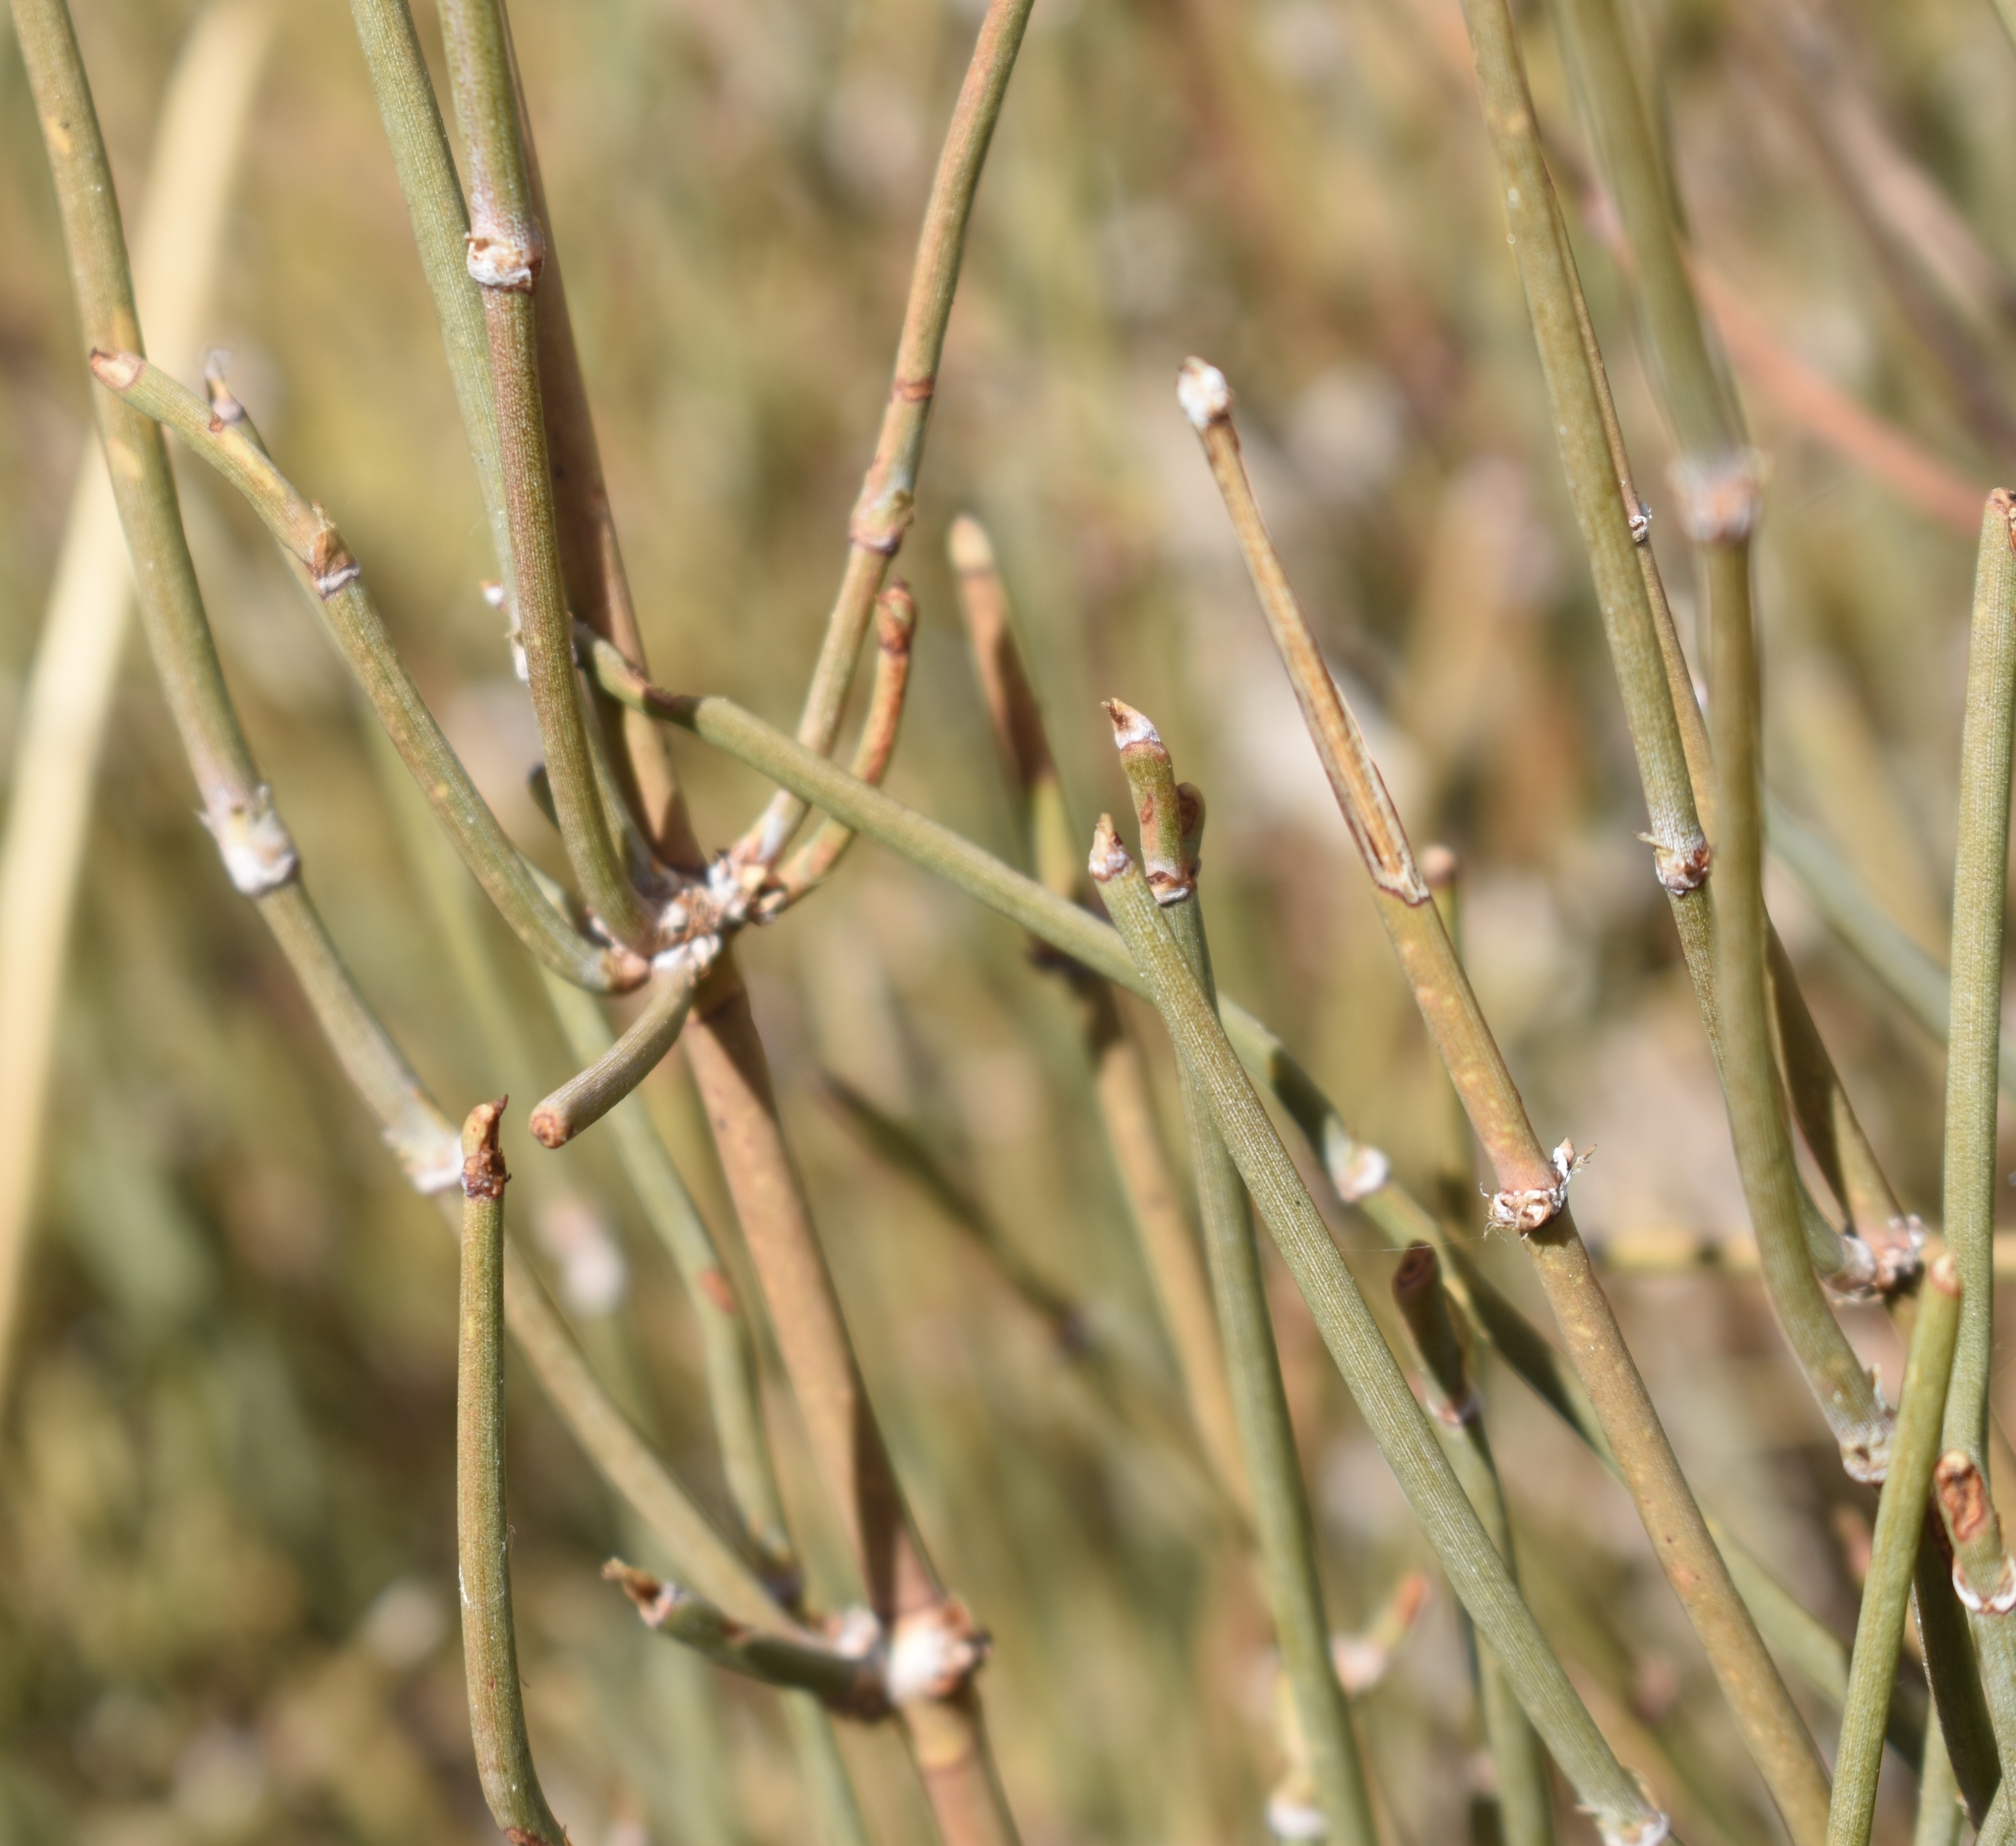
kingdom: Plantae
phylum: Tracheophyta
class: Gnetopsida
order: Ephedrales
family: Ephedraceae
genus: Ephedra
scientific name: Ephedra nevadensis
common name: Gray ephedra
